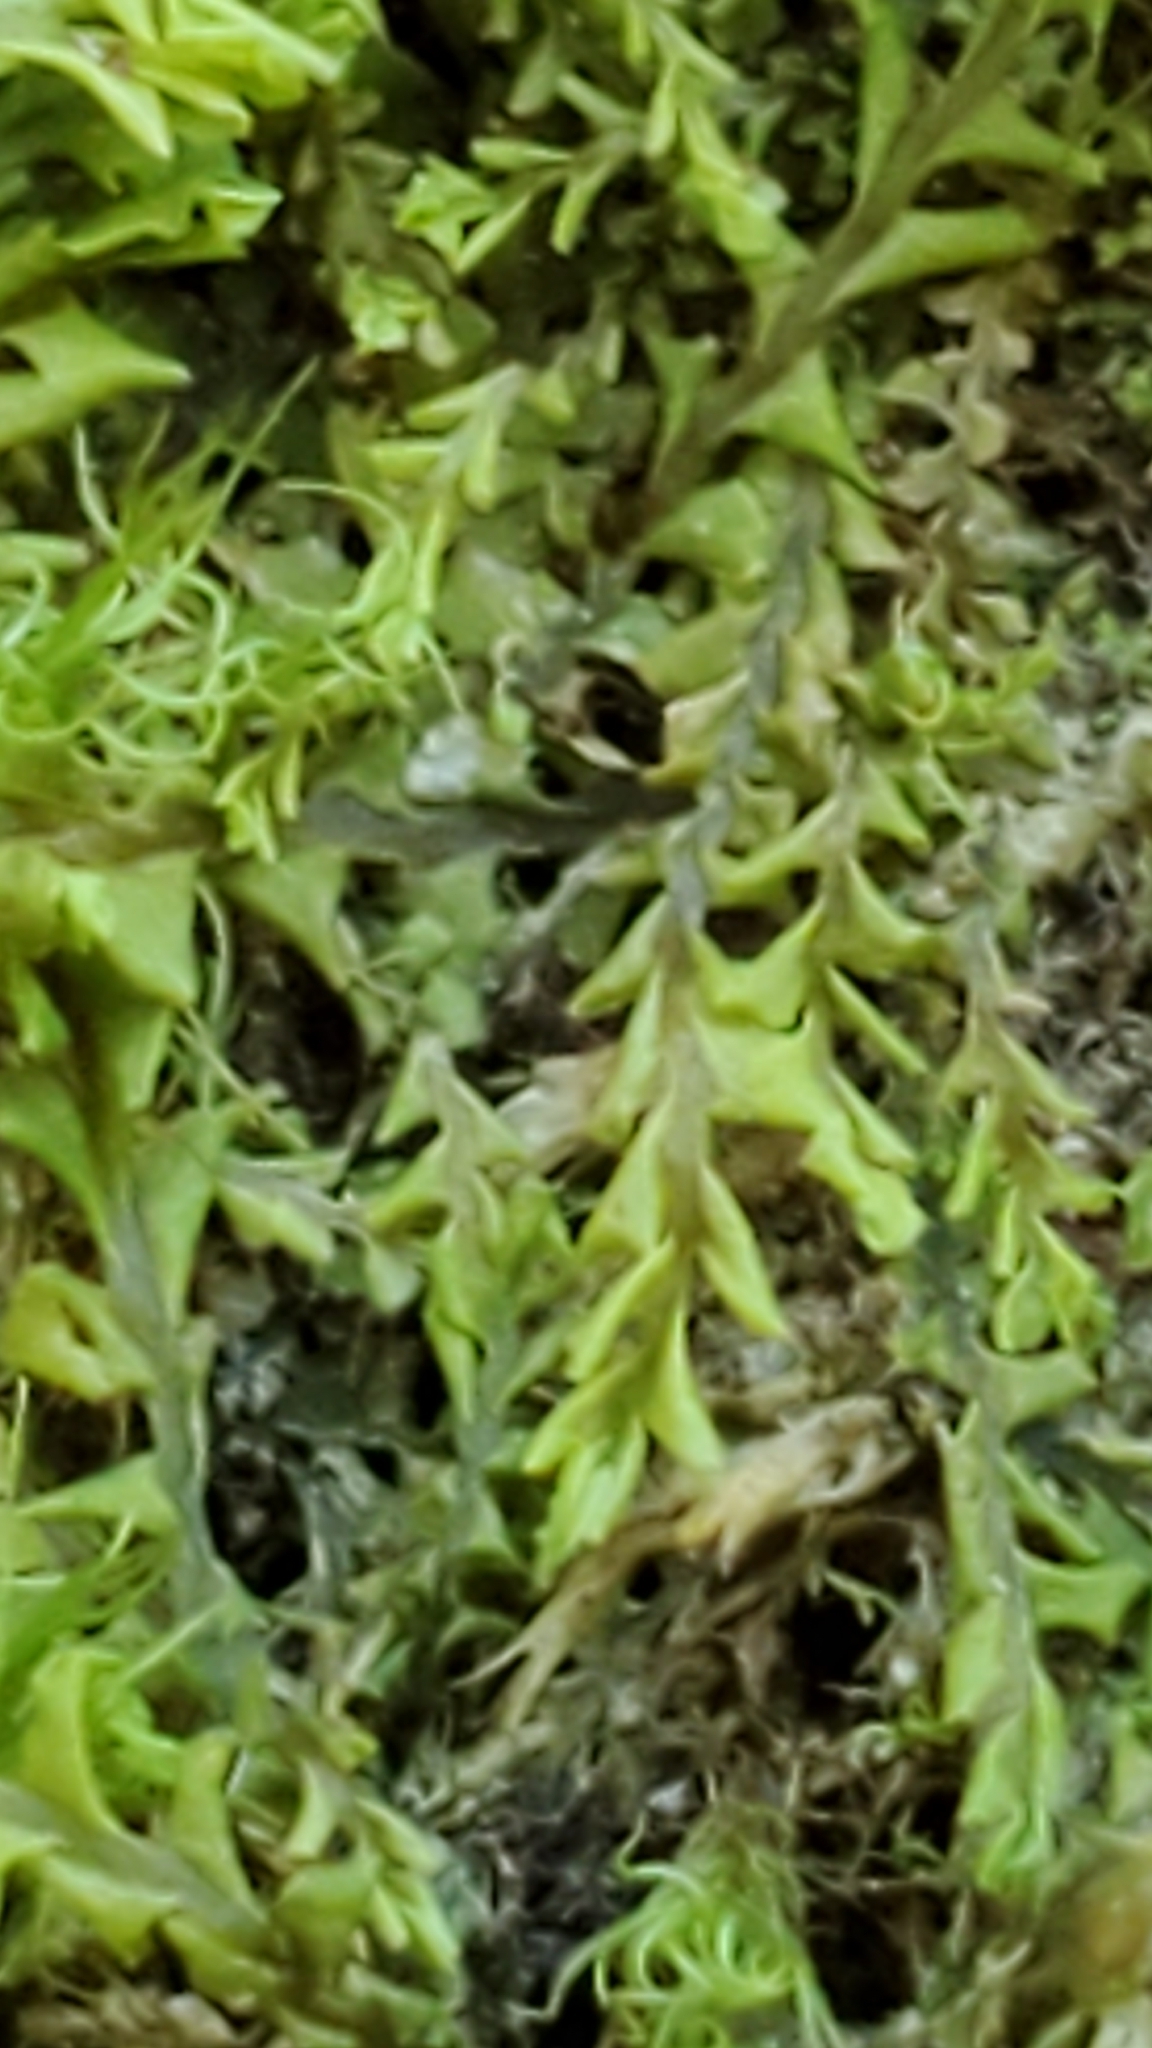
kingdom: Plantae
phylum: Marchantiophyta
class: Jungermanniopsida
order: Jungermanniales
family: Plagiochilaceae
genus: Plagiochila
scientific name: Plagiochila porelloides
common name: Lesser featherwort
